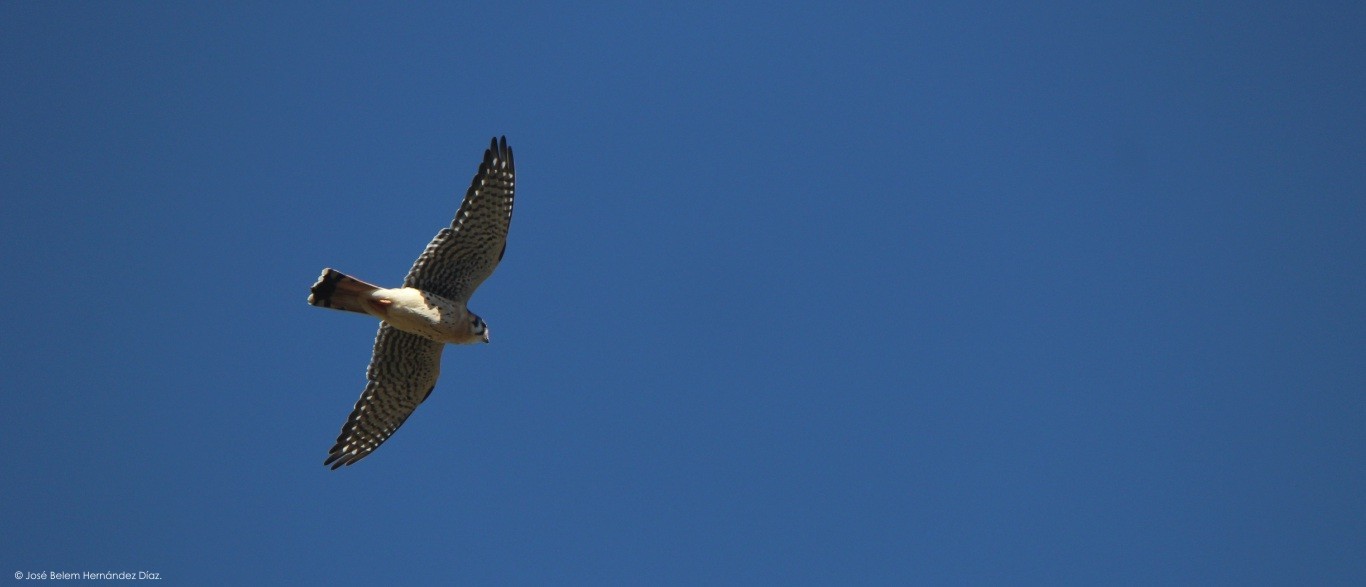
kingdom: Animalia
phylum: Chordata
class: Aves
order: Falconiformes
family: Falconidae
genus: Falco
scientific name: Falco sparverius
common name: American kestrel
